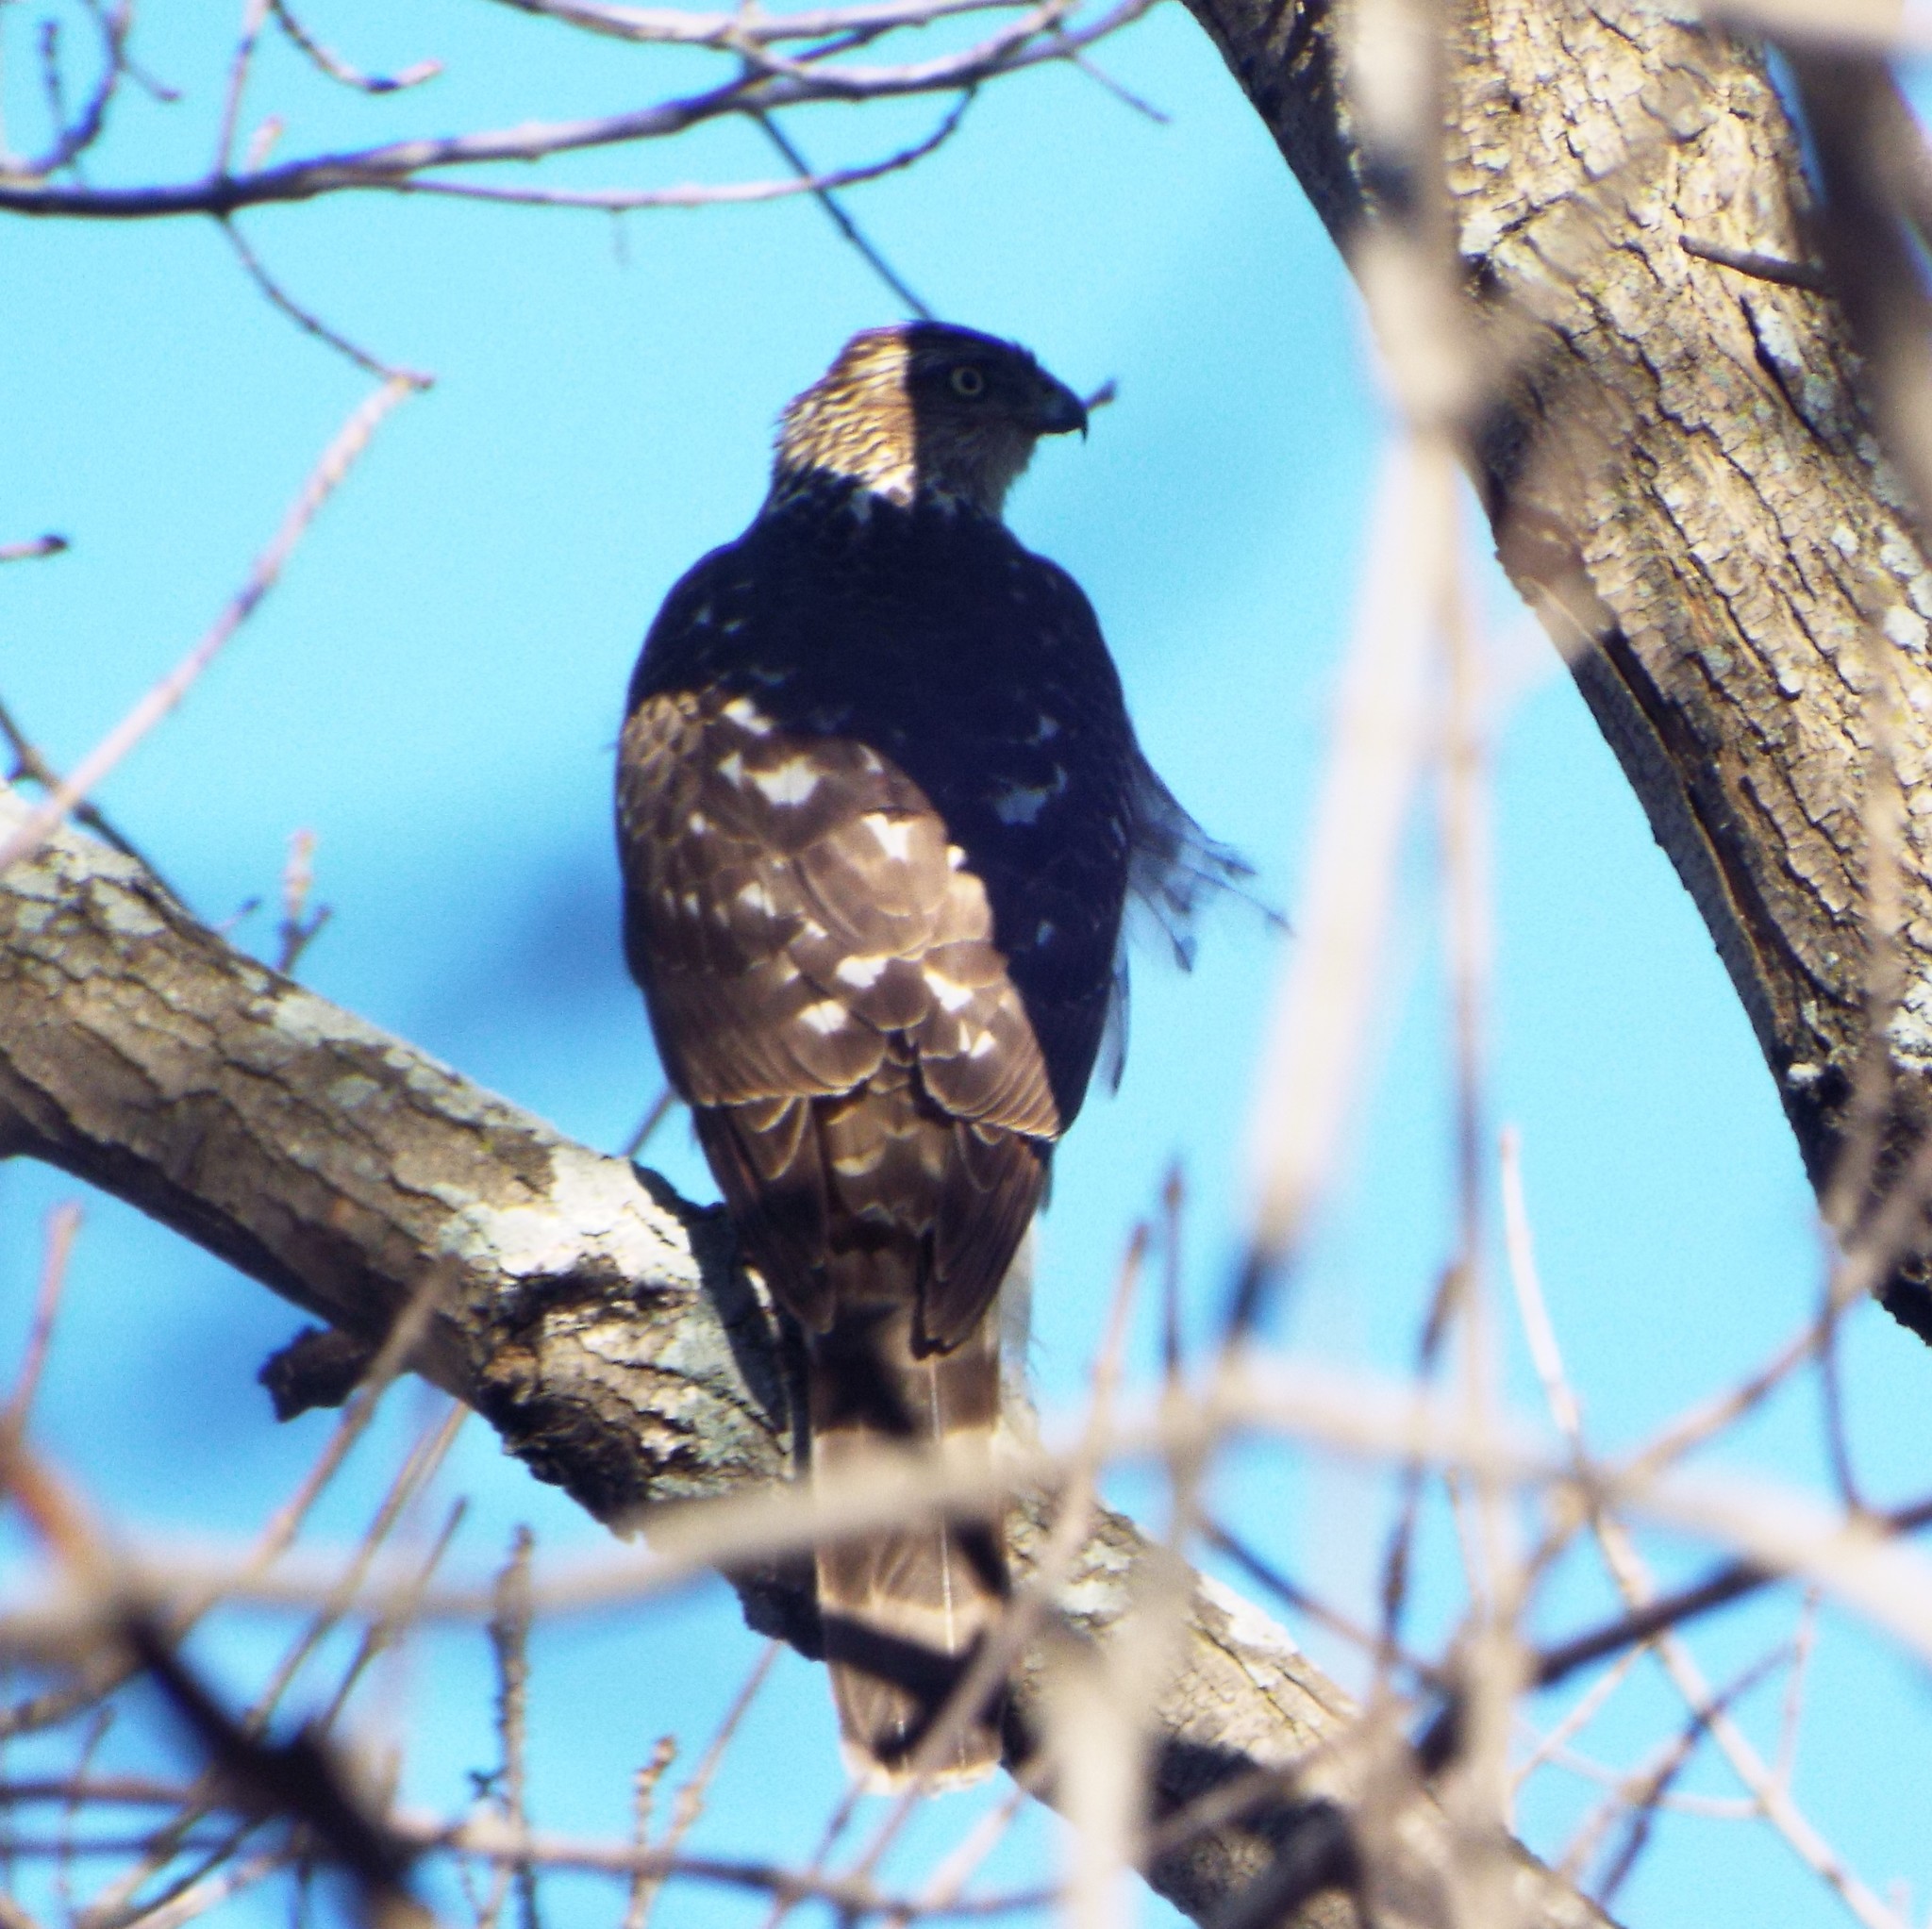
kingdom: Animalia
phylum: Chordata
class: Aves
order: Accipitriformes
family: Accipitridae
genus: Accipiter
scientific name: Accipiter cooperii
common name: Cooper's hawk
